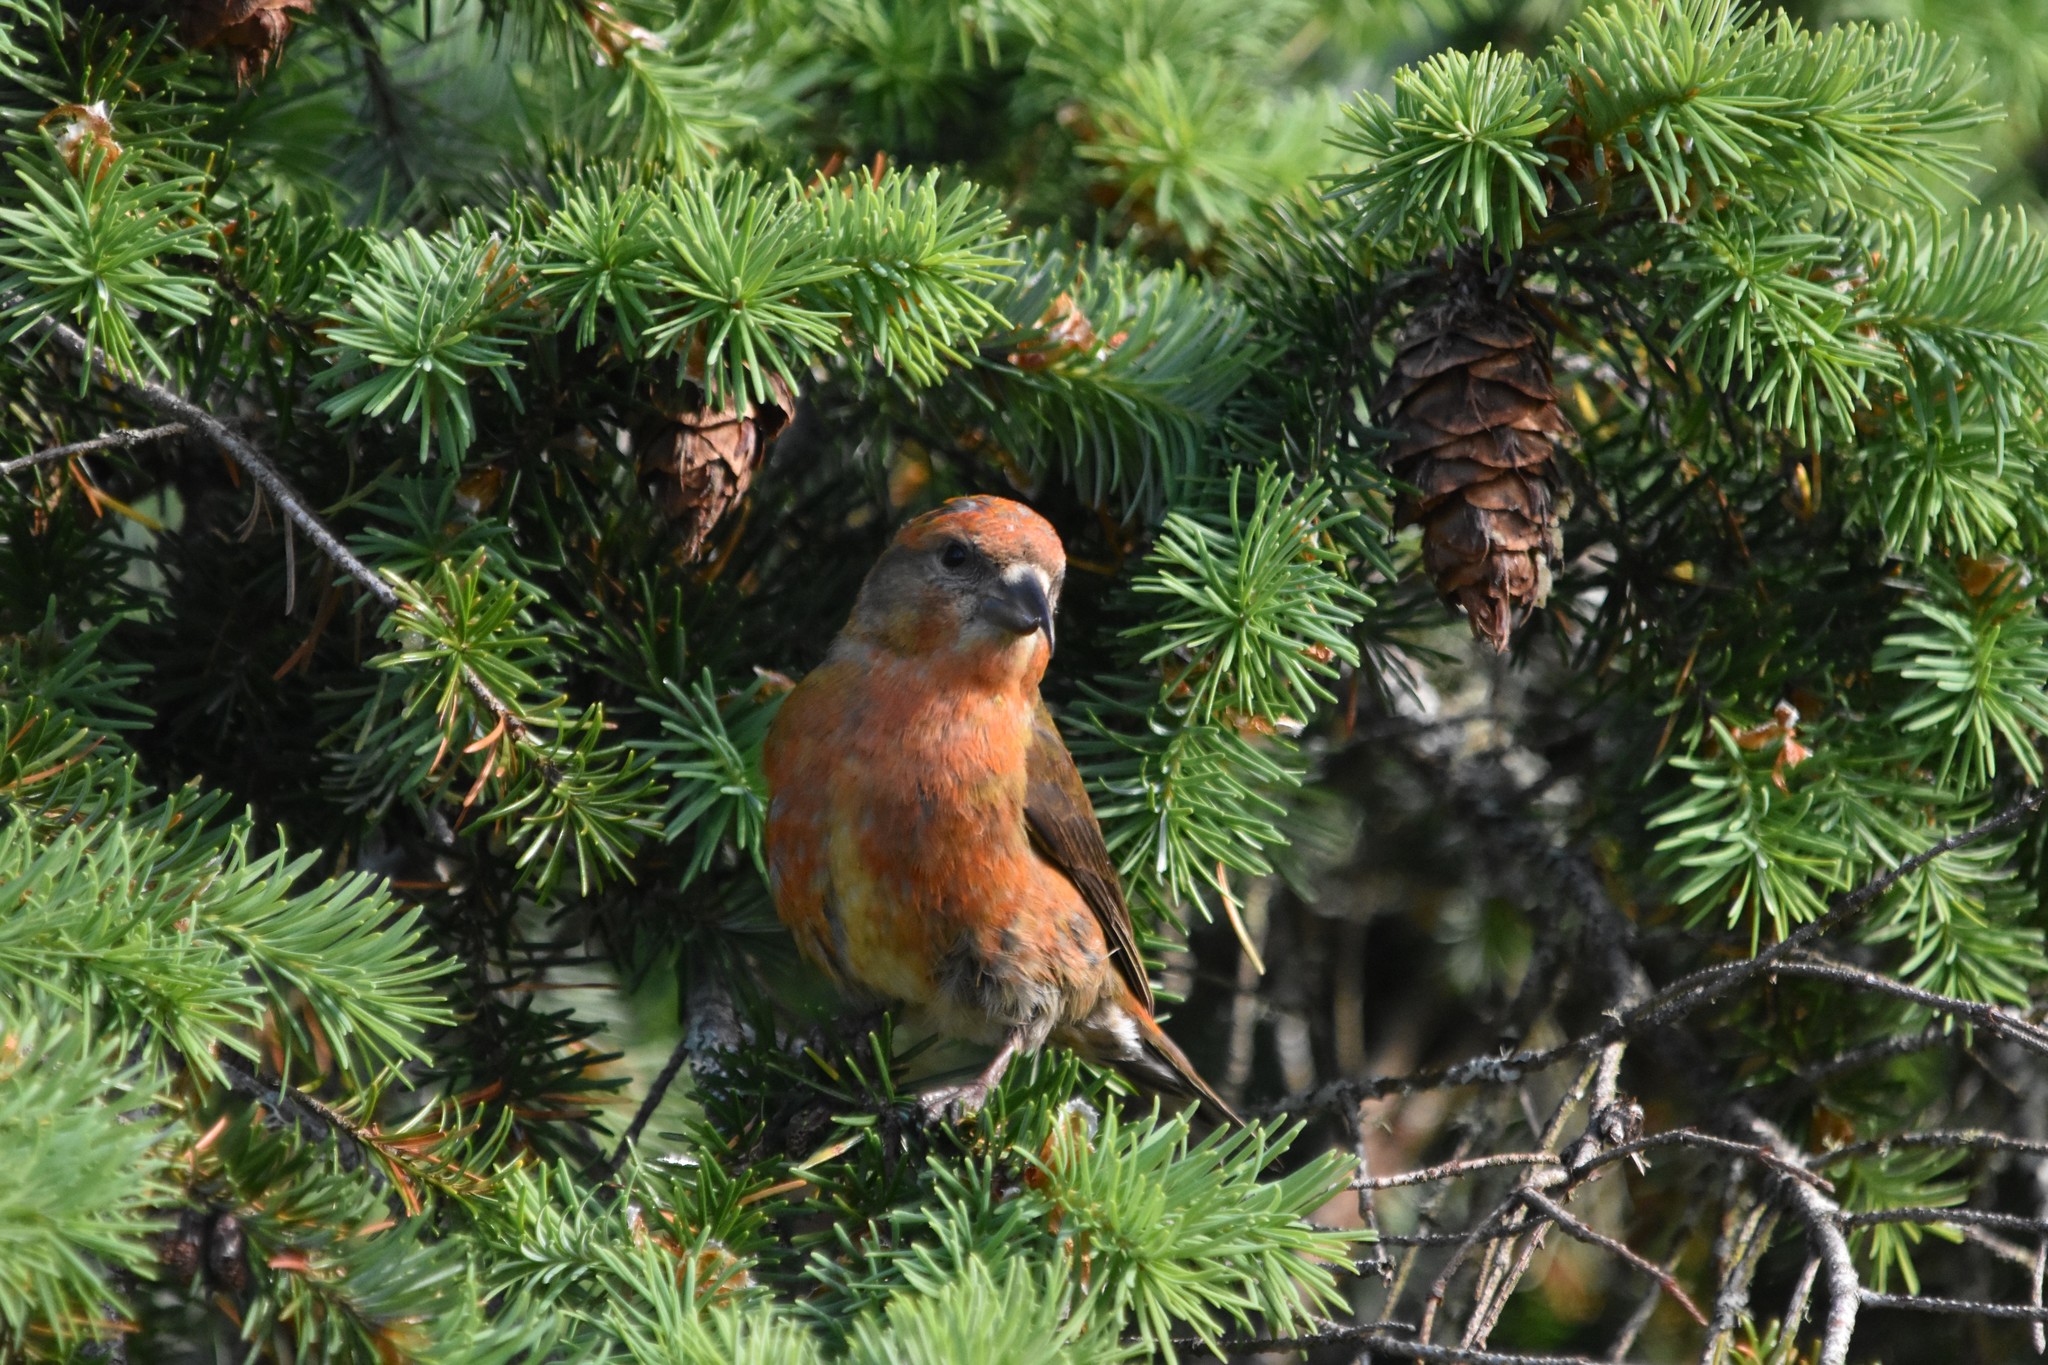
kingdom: Animalia
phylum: Chordata
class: Aves
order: Passeriformes
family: Fringillidae
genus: Loxia
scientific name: Loxia curvirostra
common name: Red crossbill
